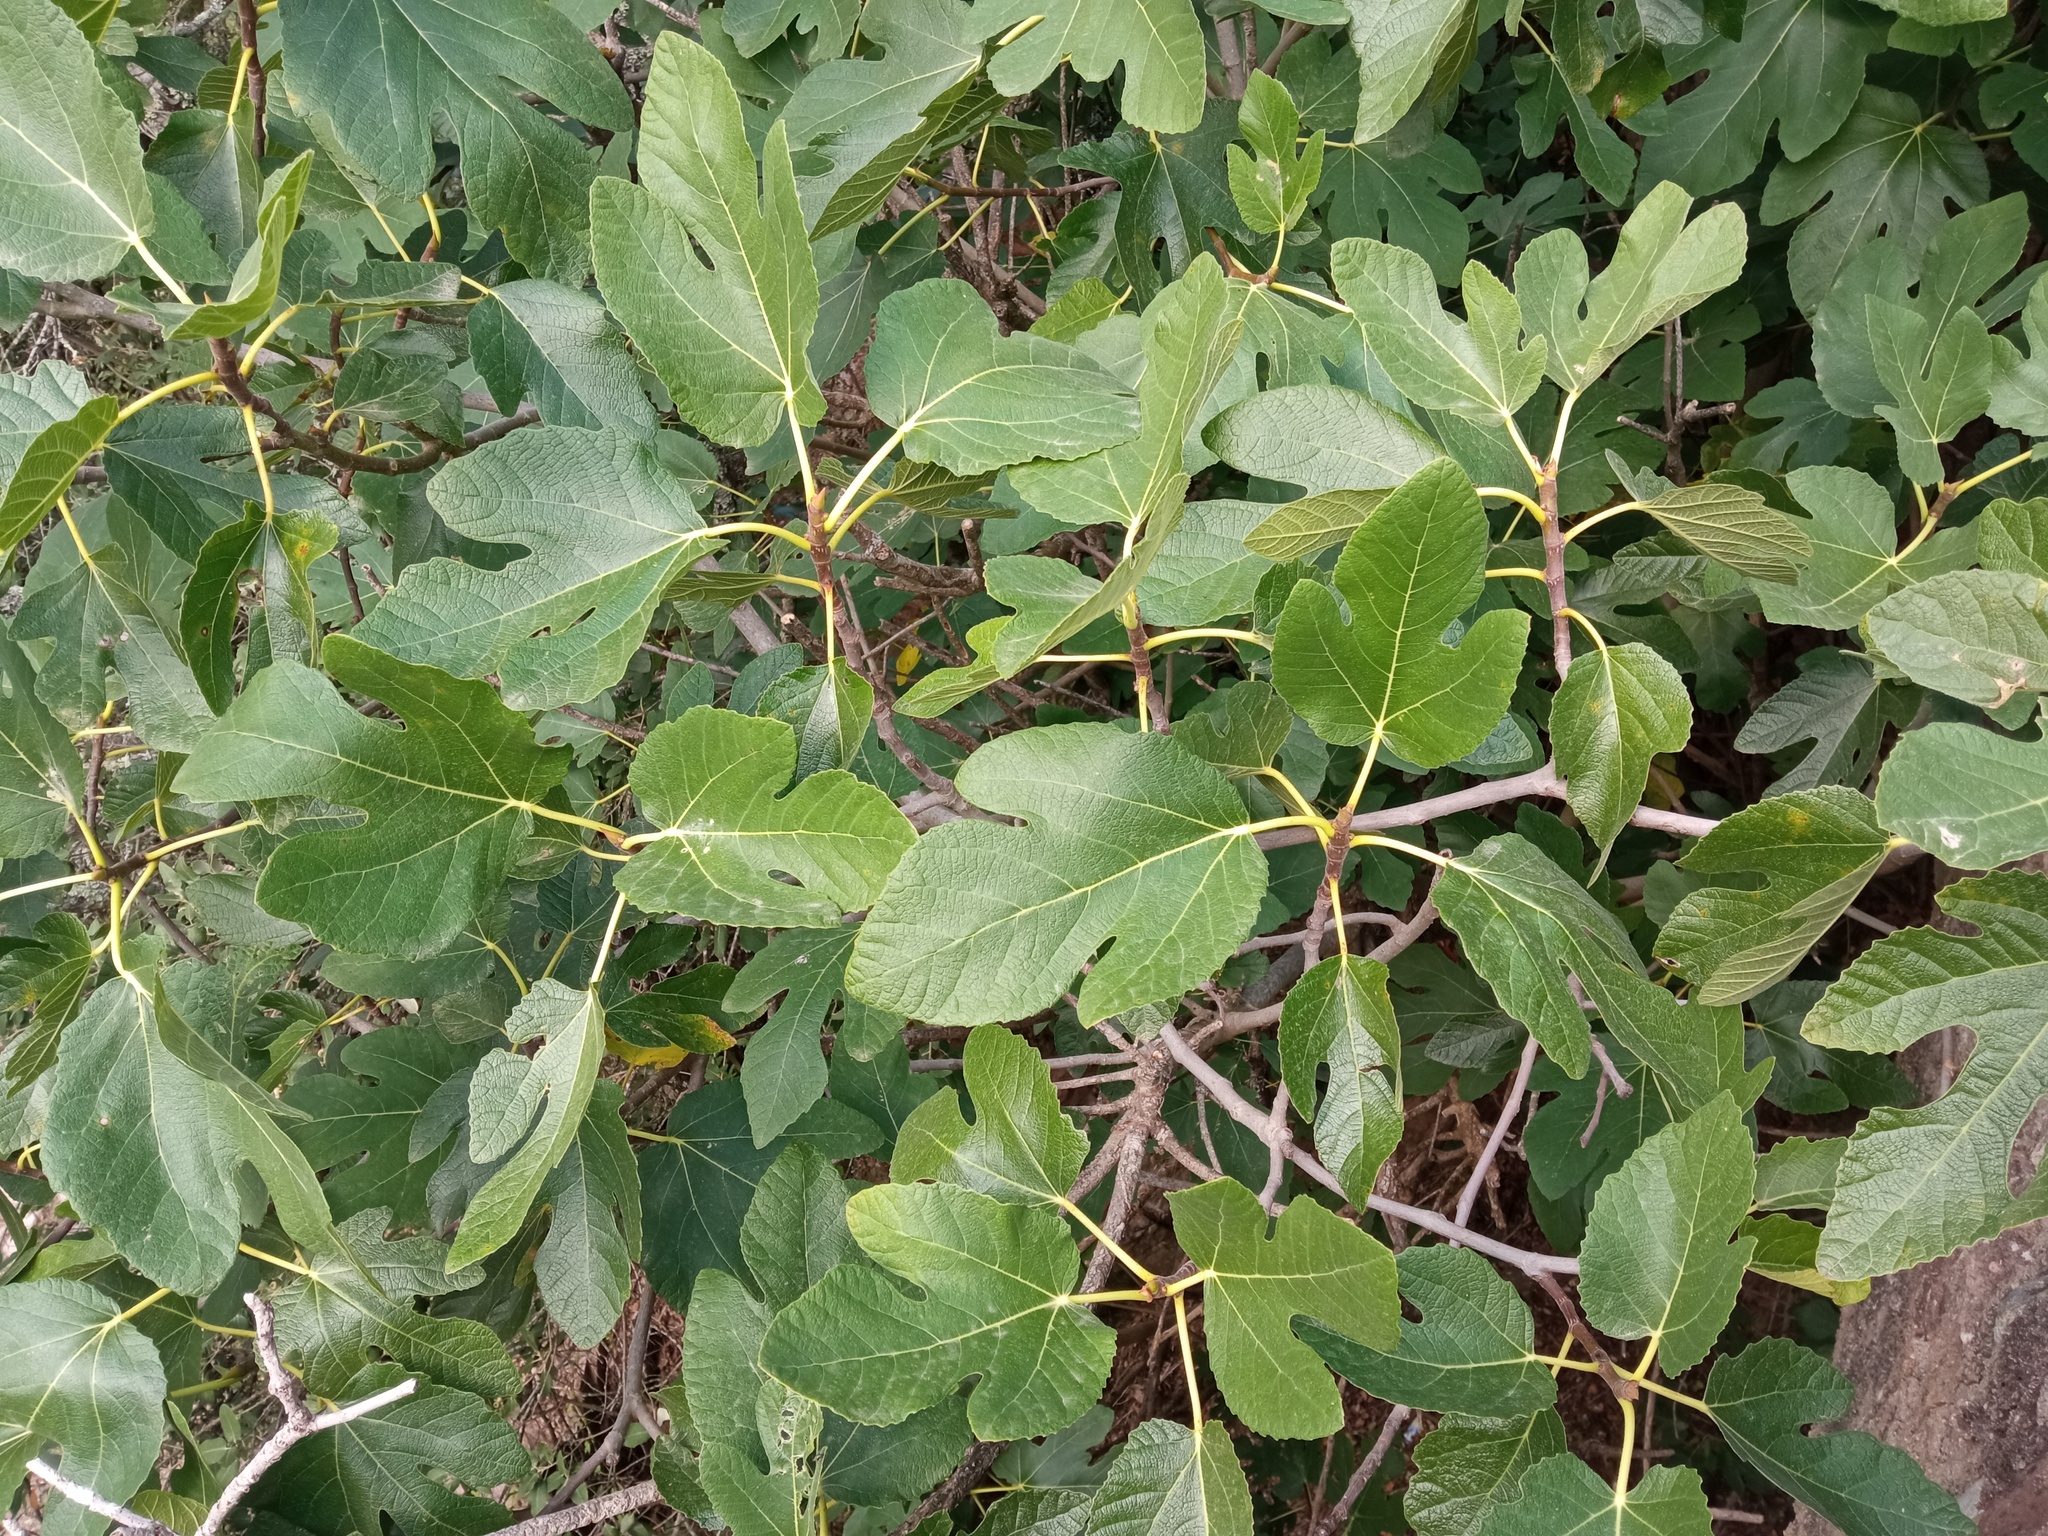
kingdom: Plantae
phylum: Tracheophyta
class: Magnoliopsida
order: Rosales
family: Moraceae
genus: Ficus
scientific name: Ficus carica
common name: Fig
